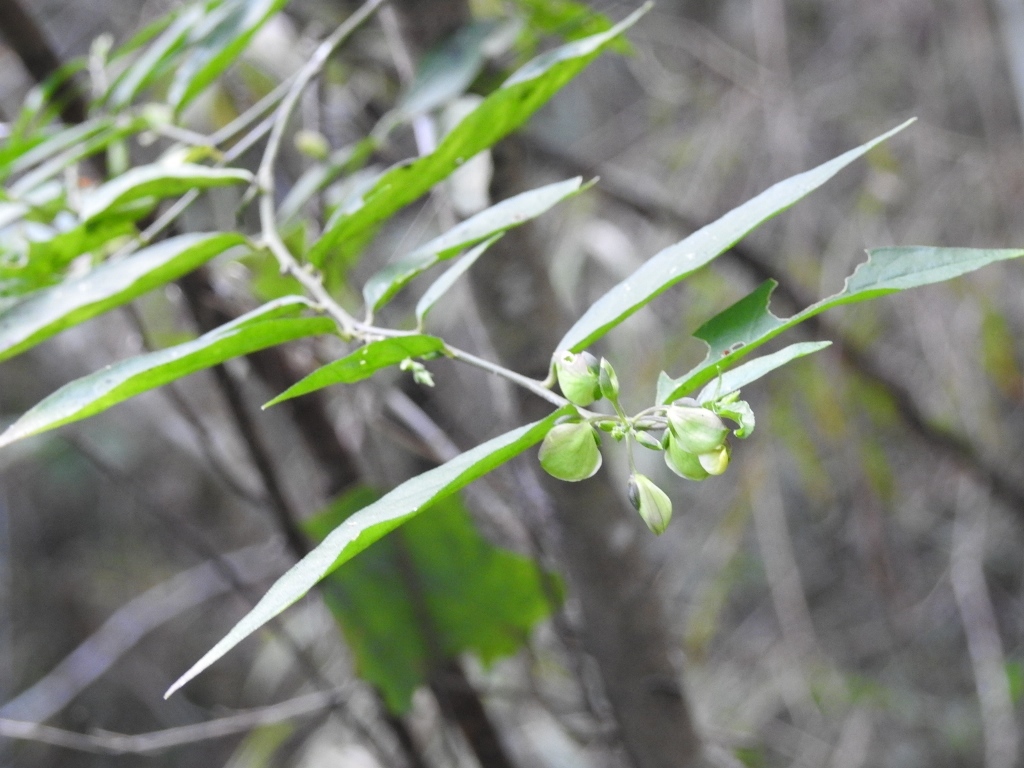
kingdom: Plantae
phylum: Tracheophyta
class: Magnoliopsida
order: Fabales
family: Polygalaceae
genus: Hebecarpa
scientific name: Hebecarpa costaricensis
